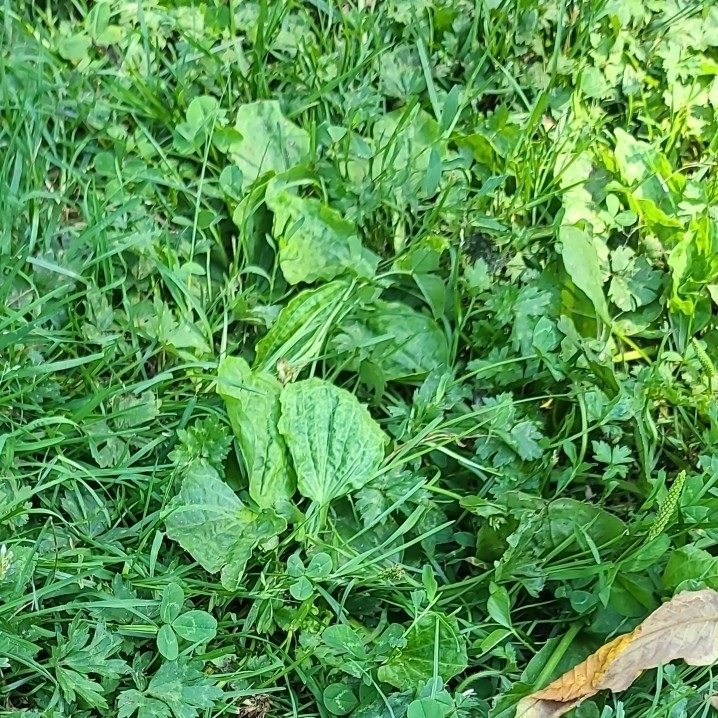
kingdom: Plantae
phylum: Tracheophyta
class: Magnoliopsida
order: Lamiales
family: Plantaginaceae
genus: Plantago
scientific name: Plantago major
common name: Common plantain
